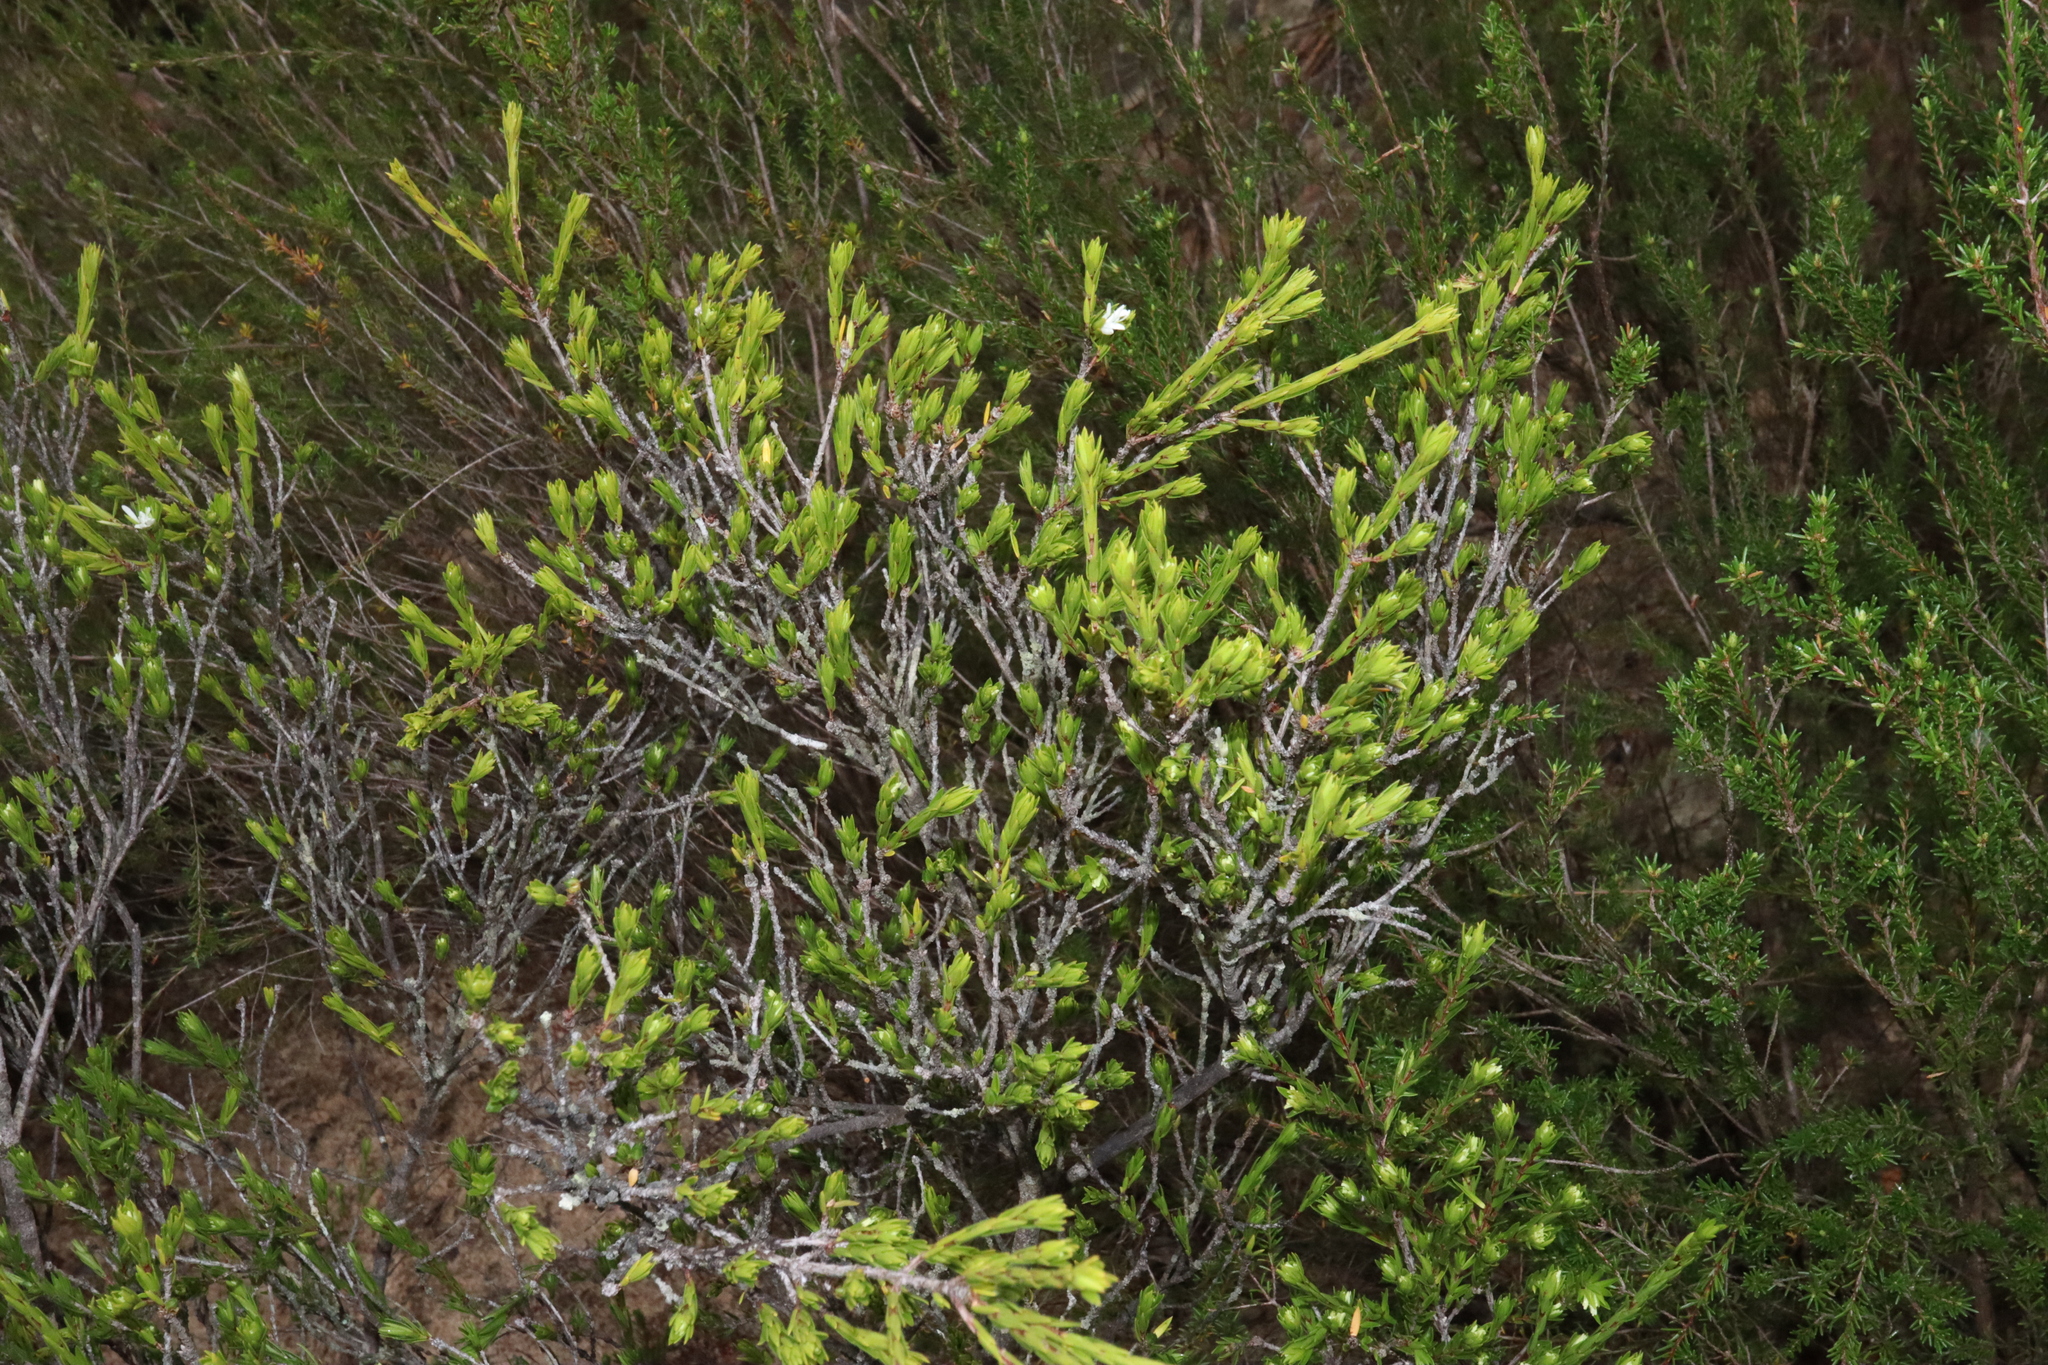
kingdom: Plantae
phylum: Tracheophyta
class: Magnoliopsida
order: Malpighiales
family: Picrodendraceae
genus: Pseudanthus
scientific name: Pseudanthus pimeleoides
